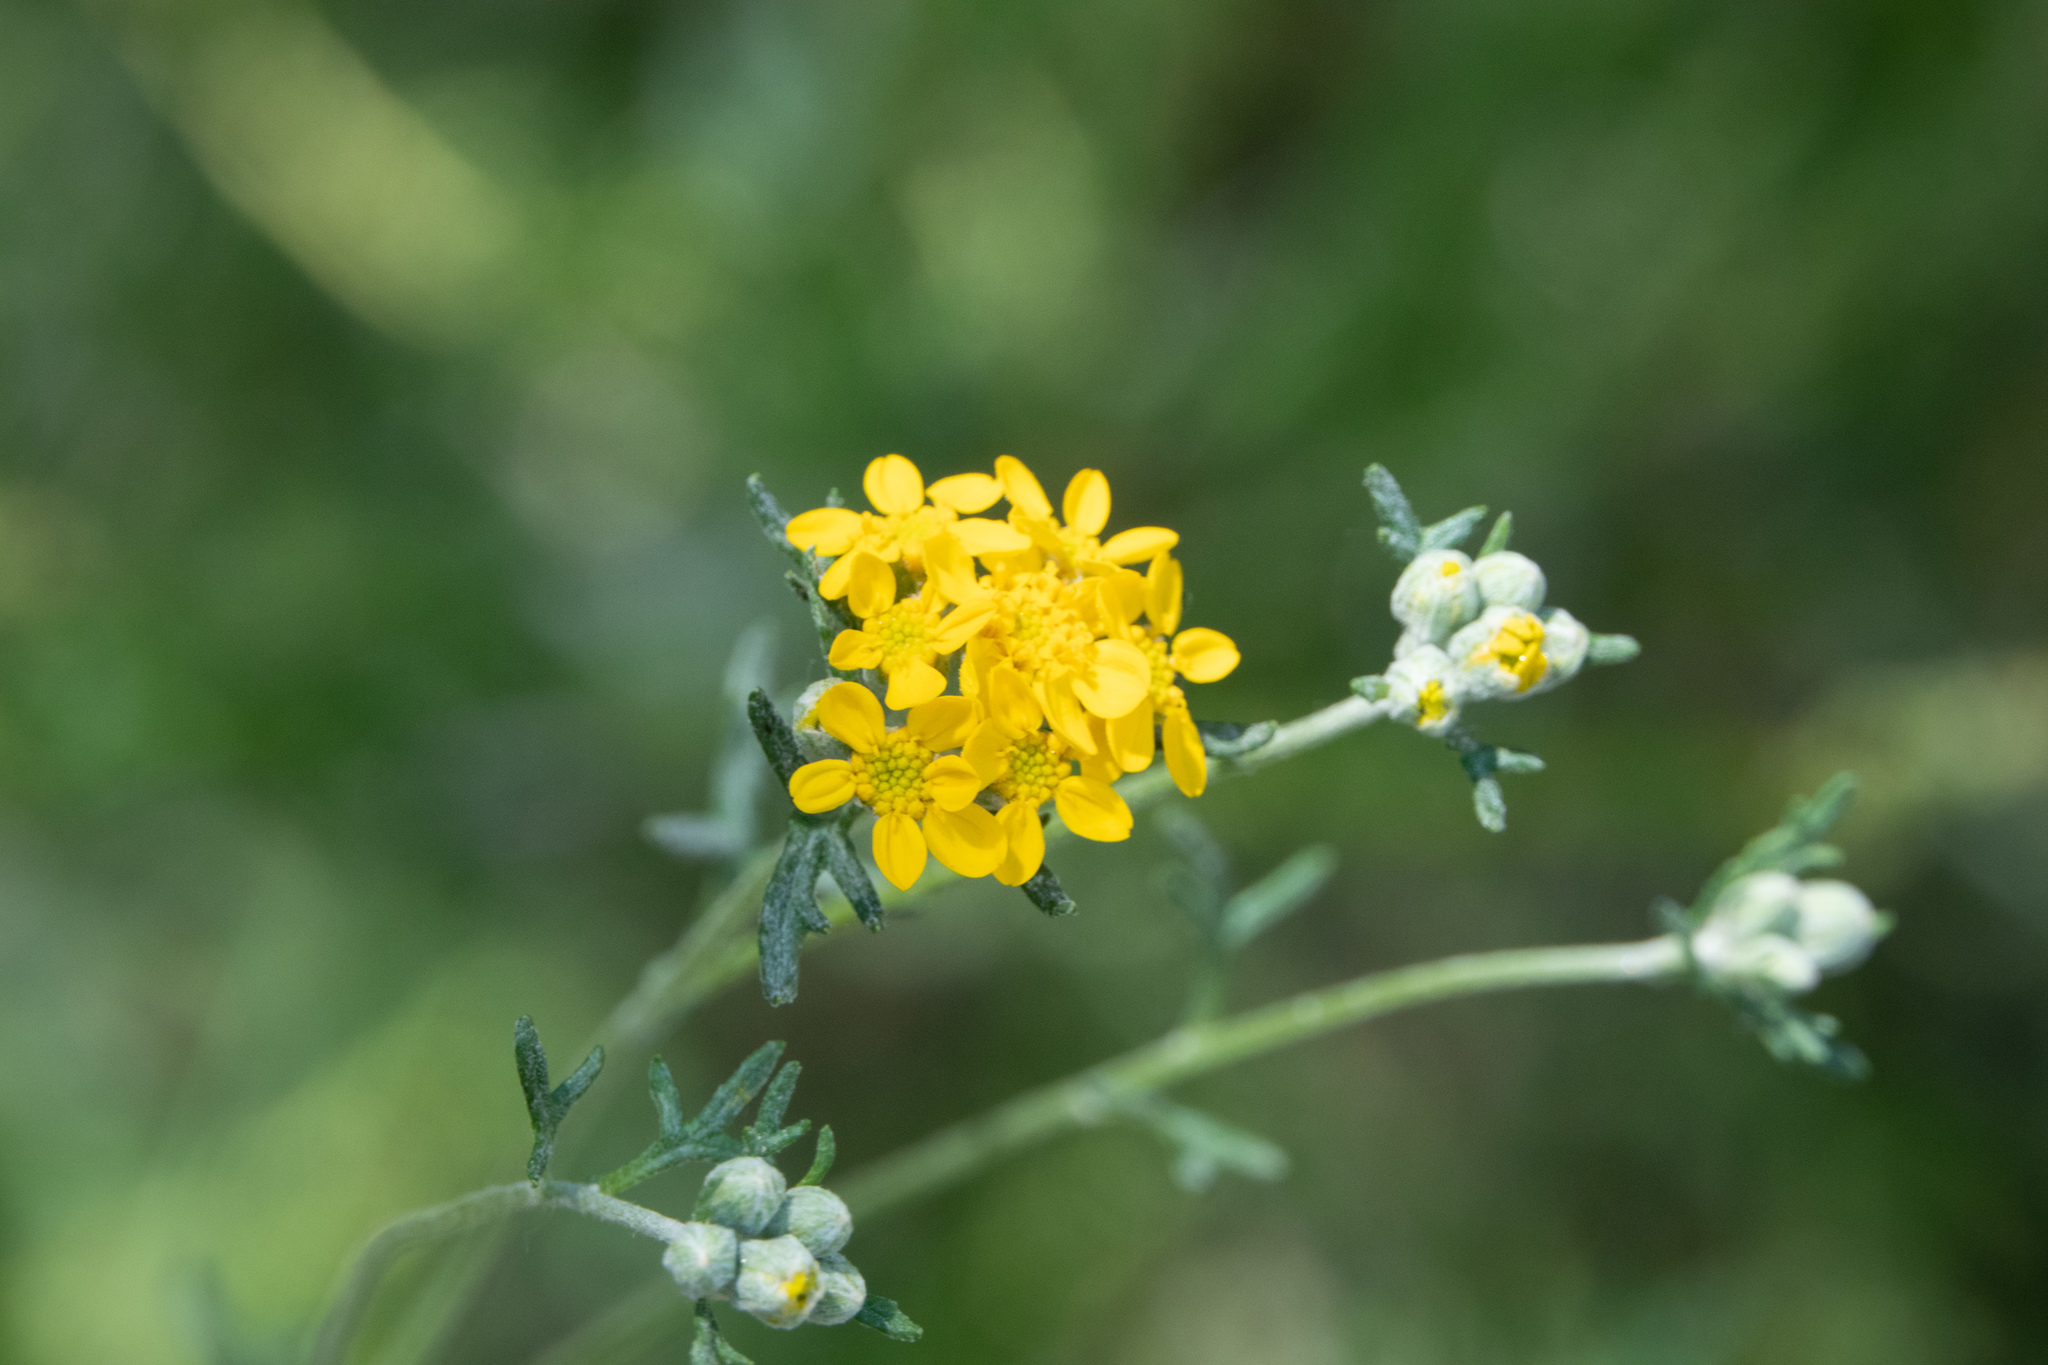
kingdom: Plantae
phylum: Tracheophyta
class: Magnoliopsida
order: Asterales
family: Asteraceae
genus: Eriophyllum
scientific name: Eriophyllum confertiflorum
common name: Golden-yarrow
